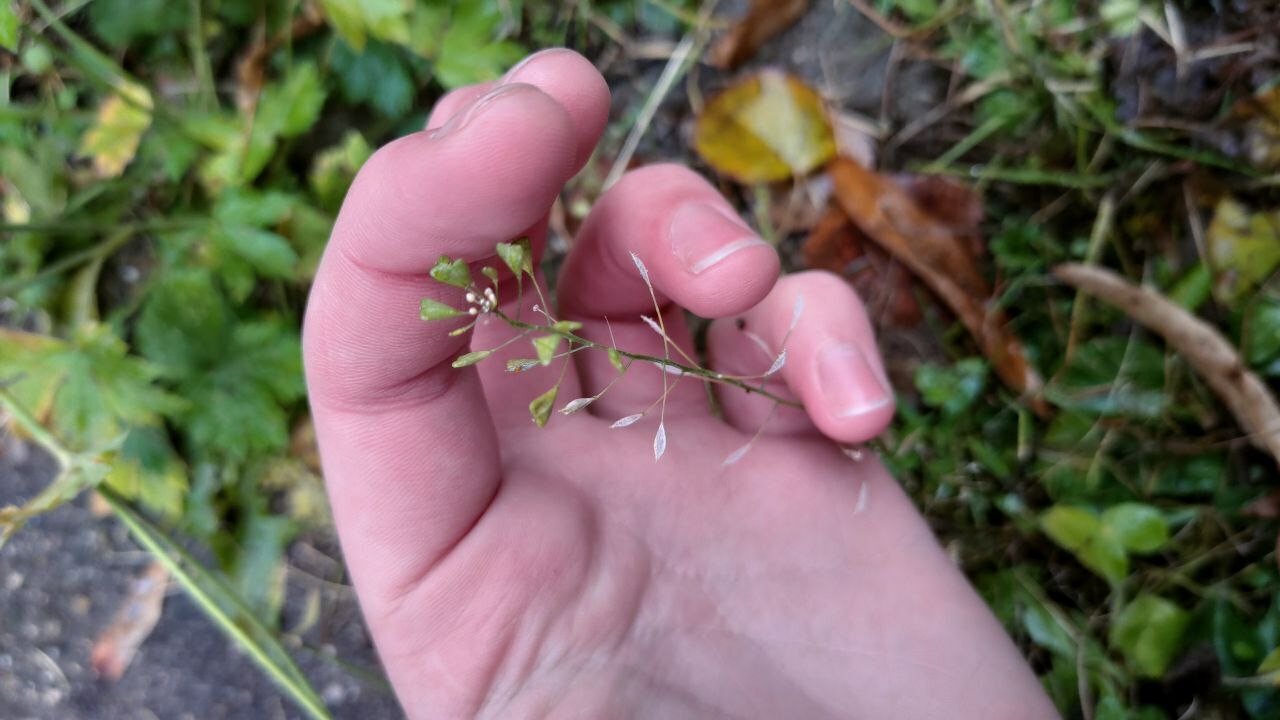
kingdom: Plantae
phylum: Tracheophyta
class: Magnoliopsida
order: Brassicales
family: Brassicaceae
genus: Capsella
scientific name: Capsella bursa-pastoris
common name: Shepherd's purse
